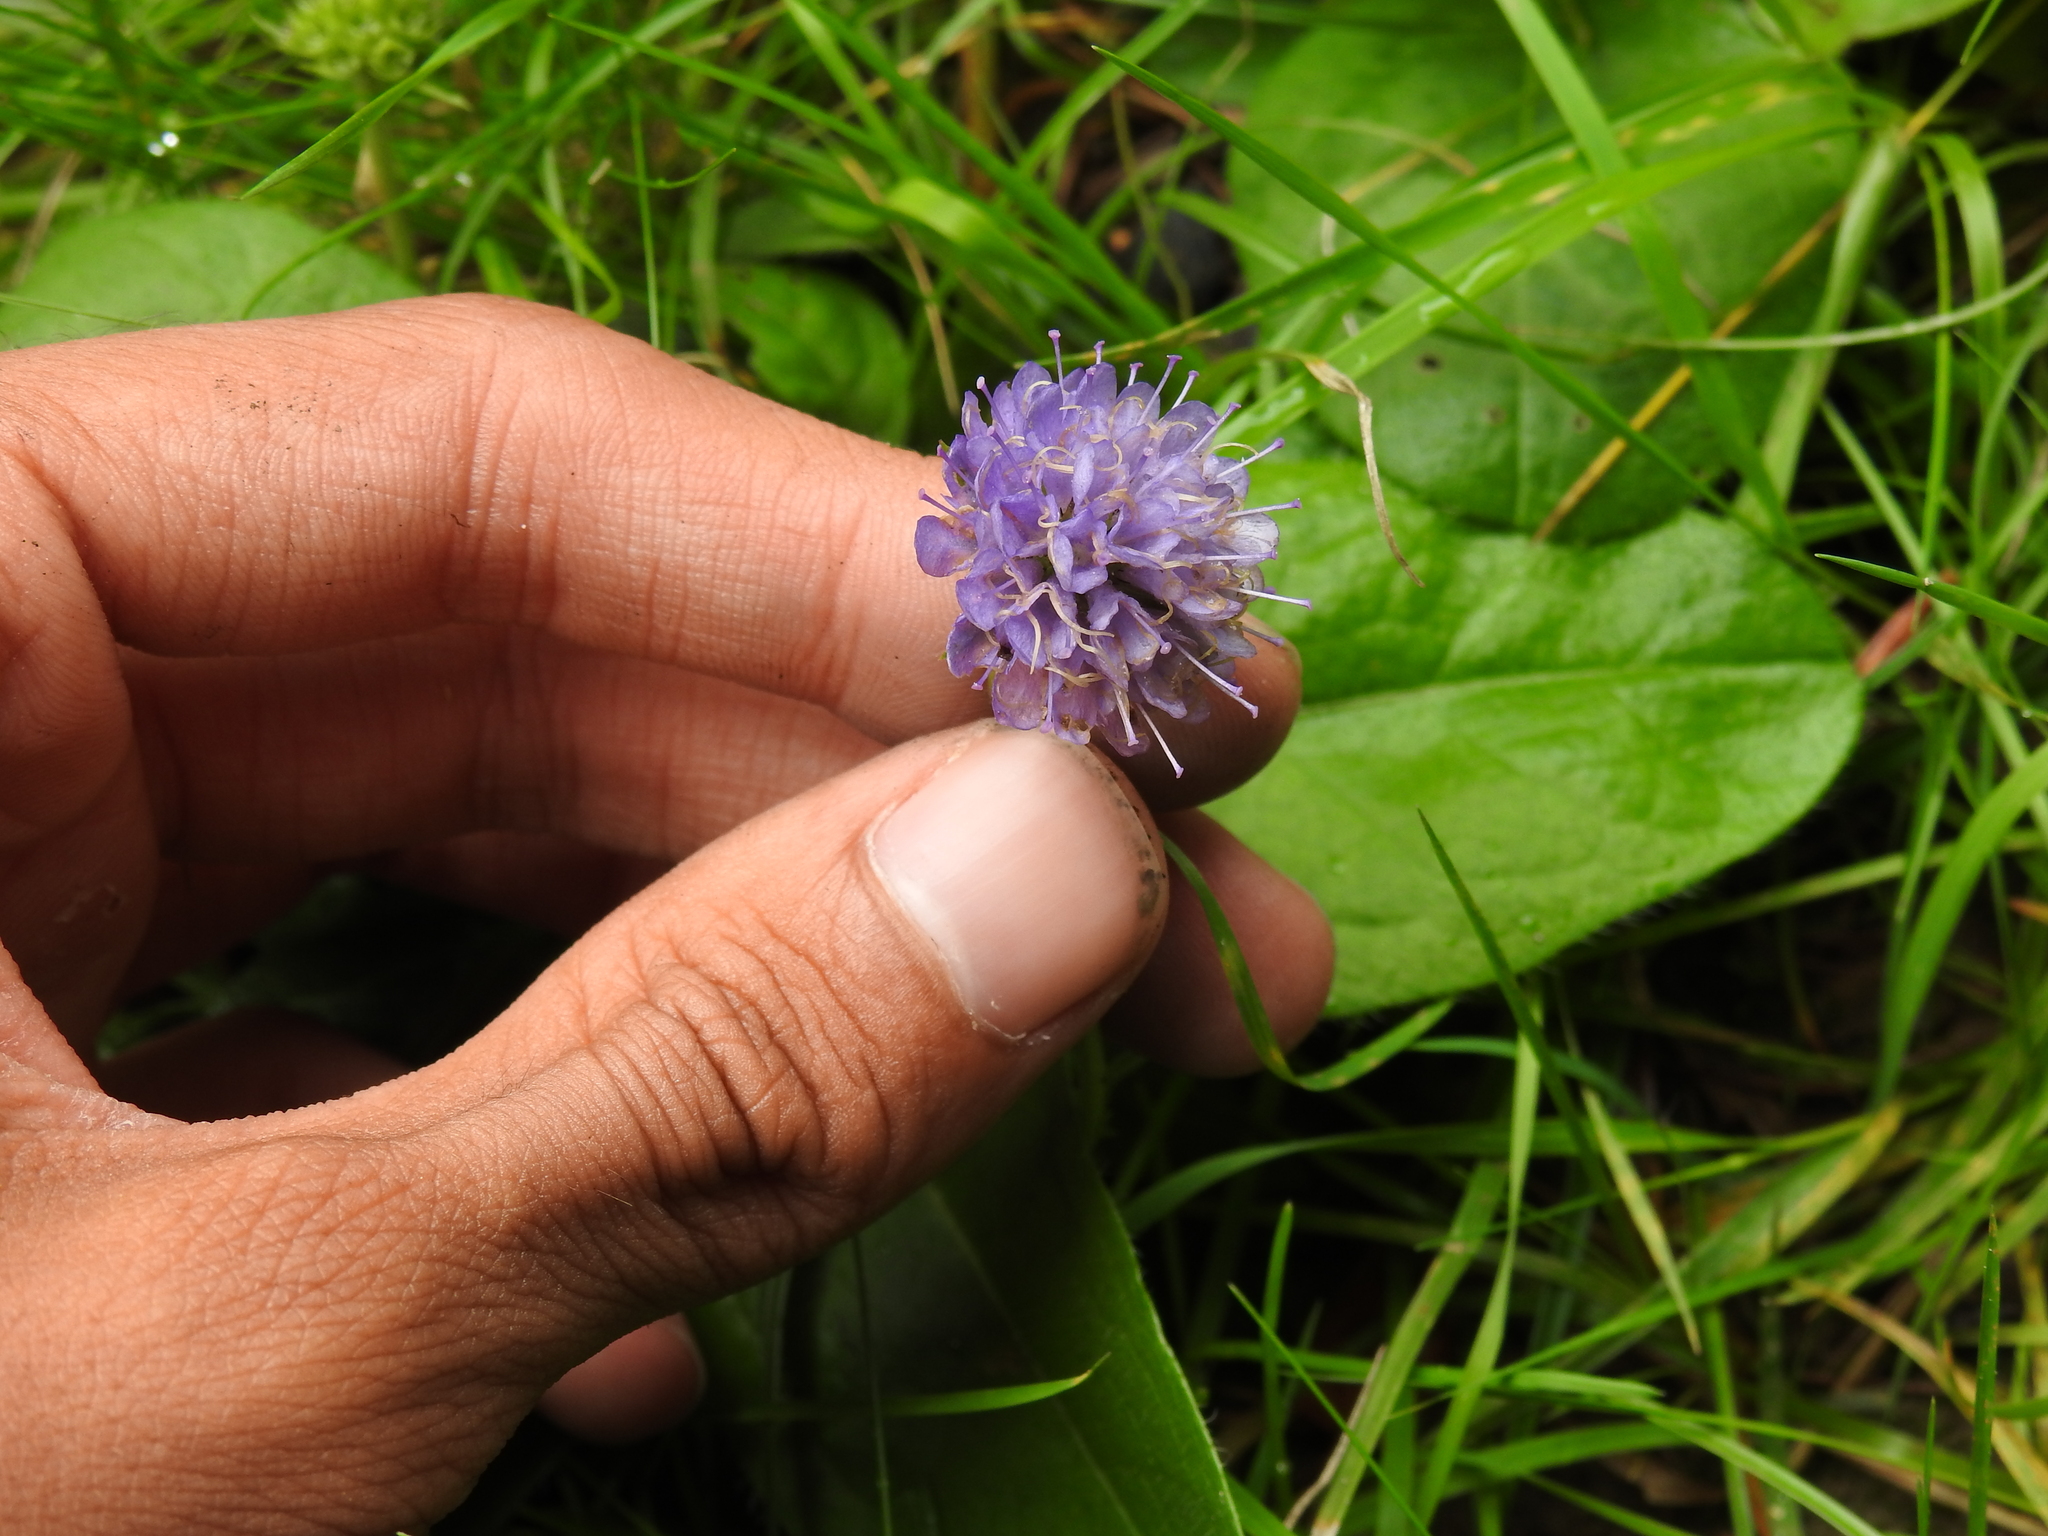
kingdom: Plantae
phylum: Tracheophyta
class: Magnoliopsida
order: Dipsacales
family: Caprifoliaceae
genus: Succisa
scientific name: Succisa pratensis
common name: Devil's-bit
